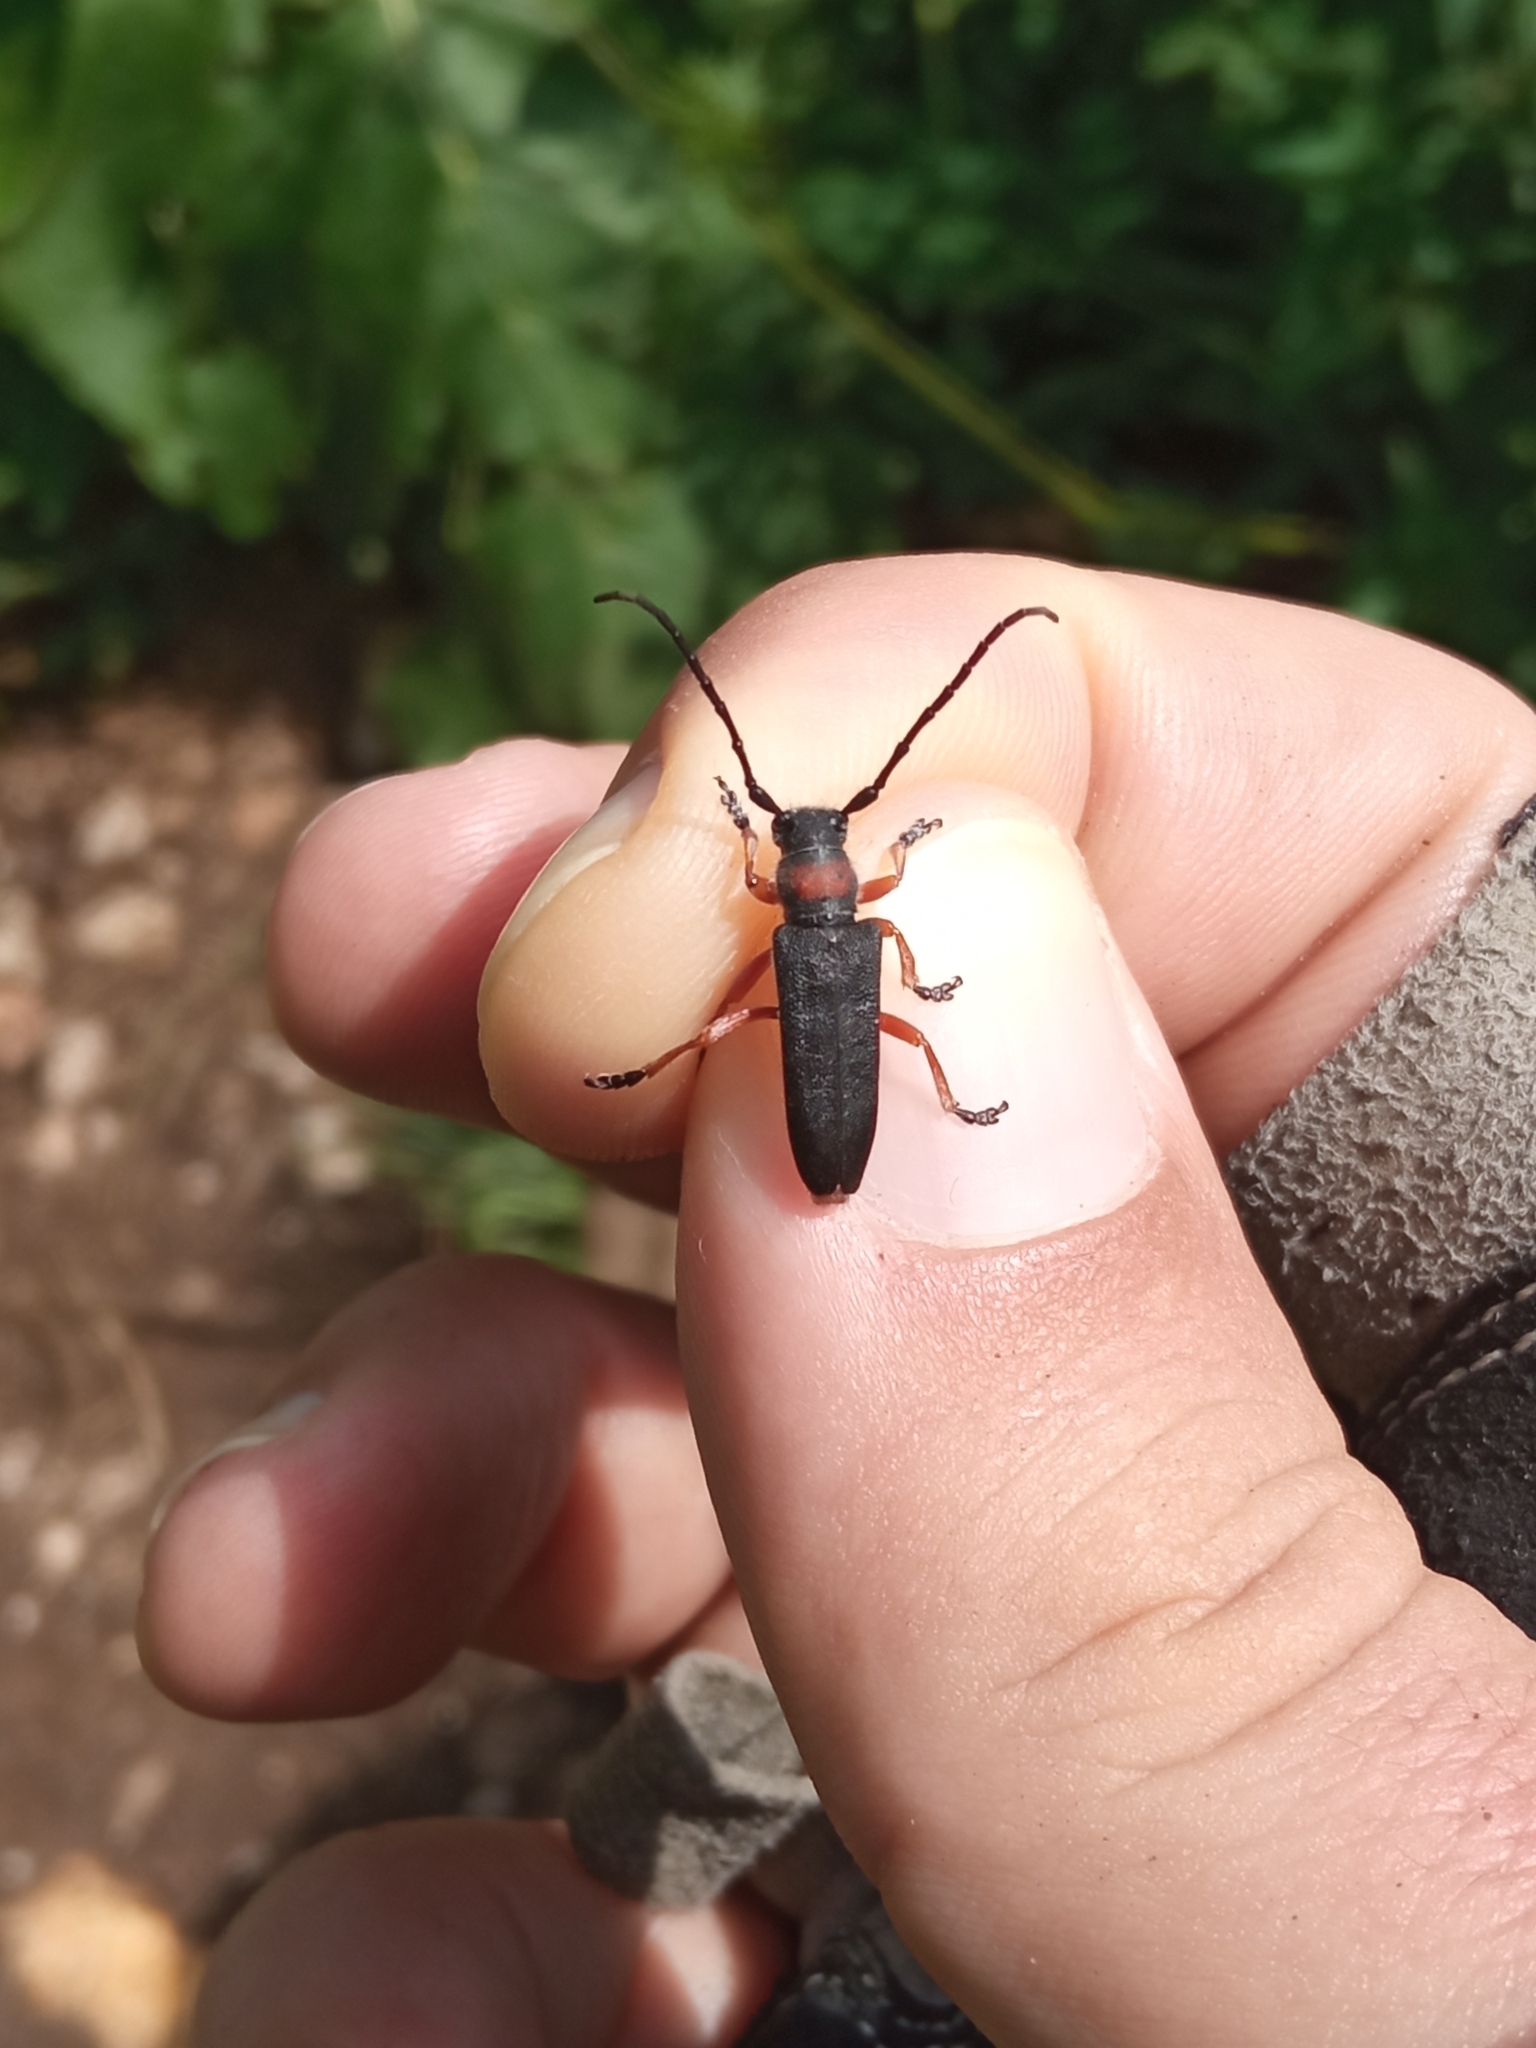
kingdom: Animalia
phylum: Arthropoda
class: Insecta
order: Coleoptera
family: Cerambycidae
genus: Phytoecia
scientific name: Phytoecia affinis
